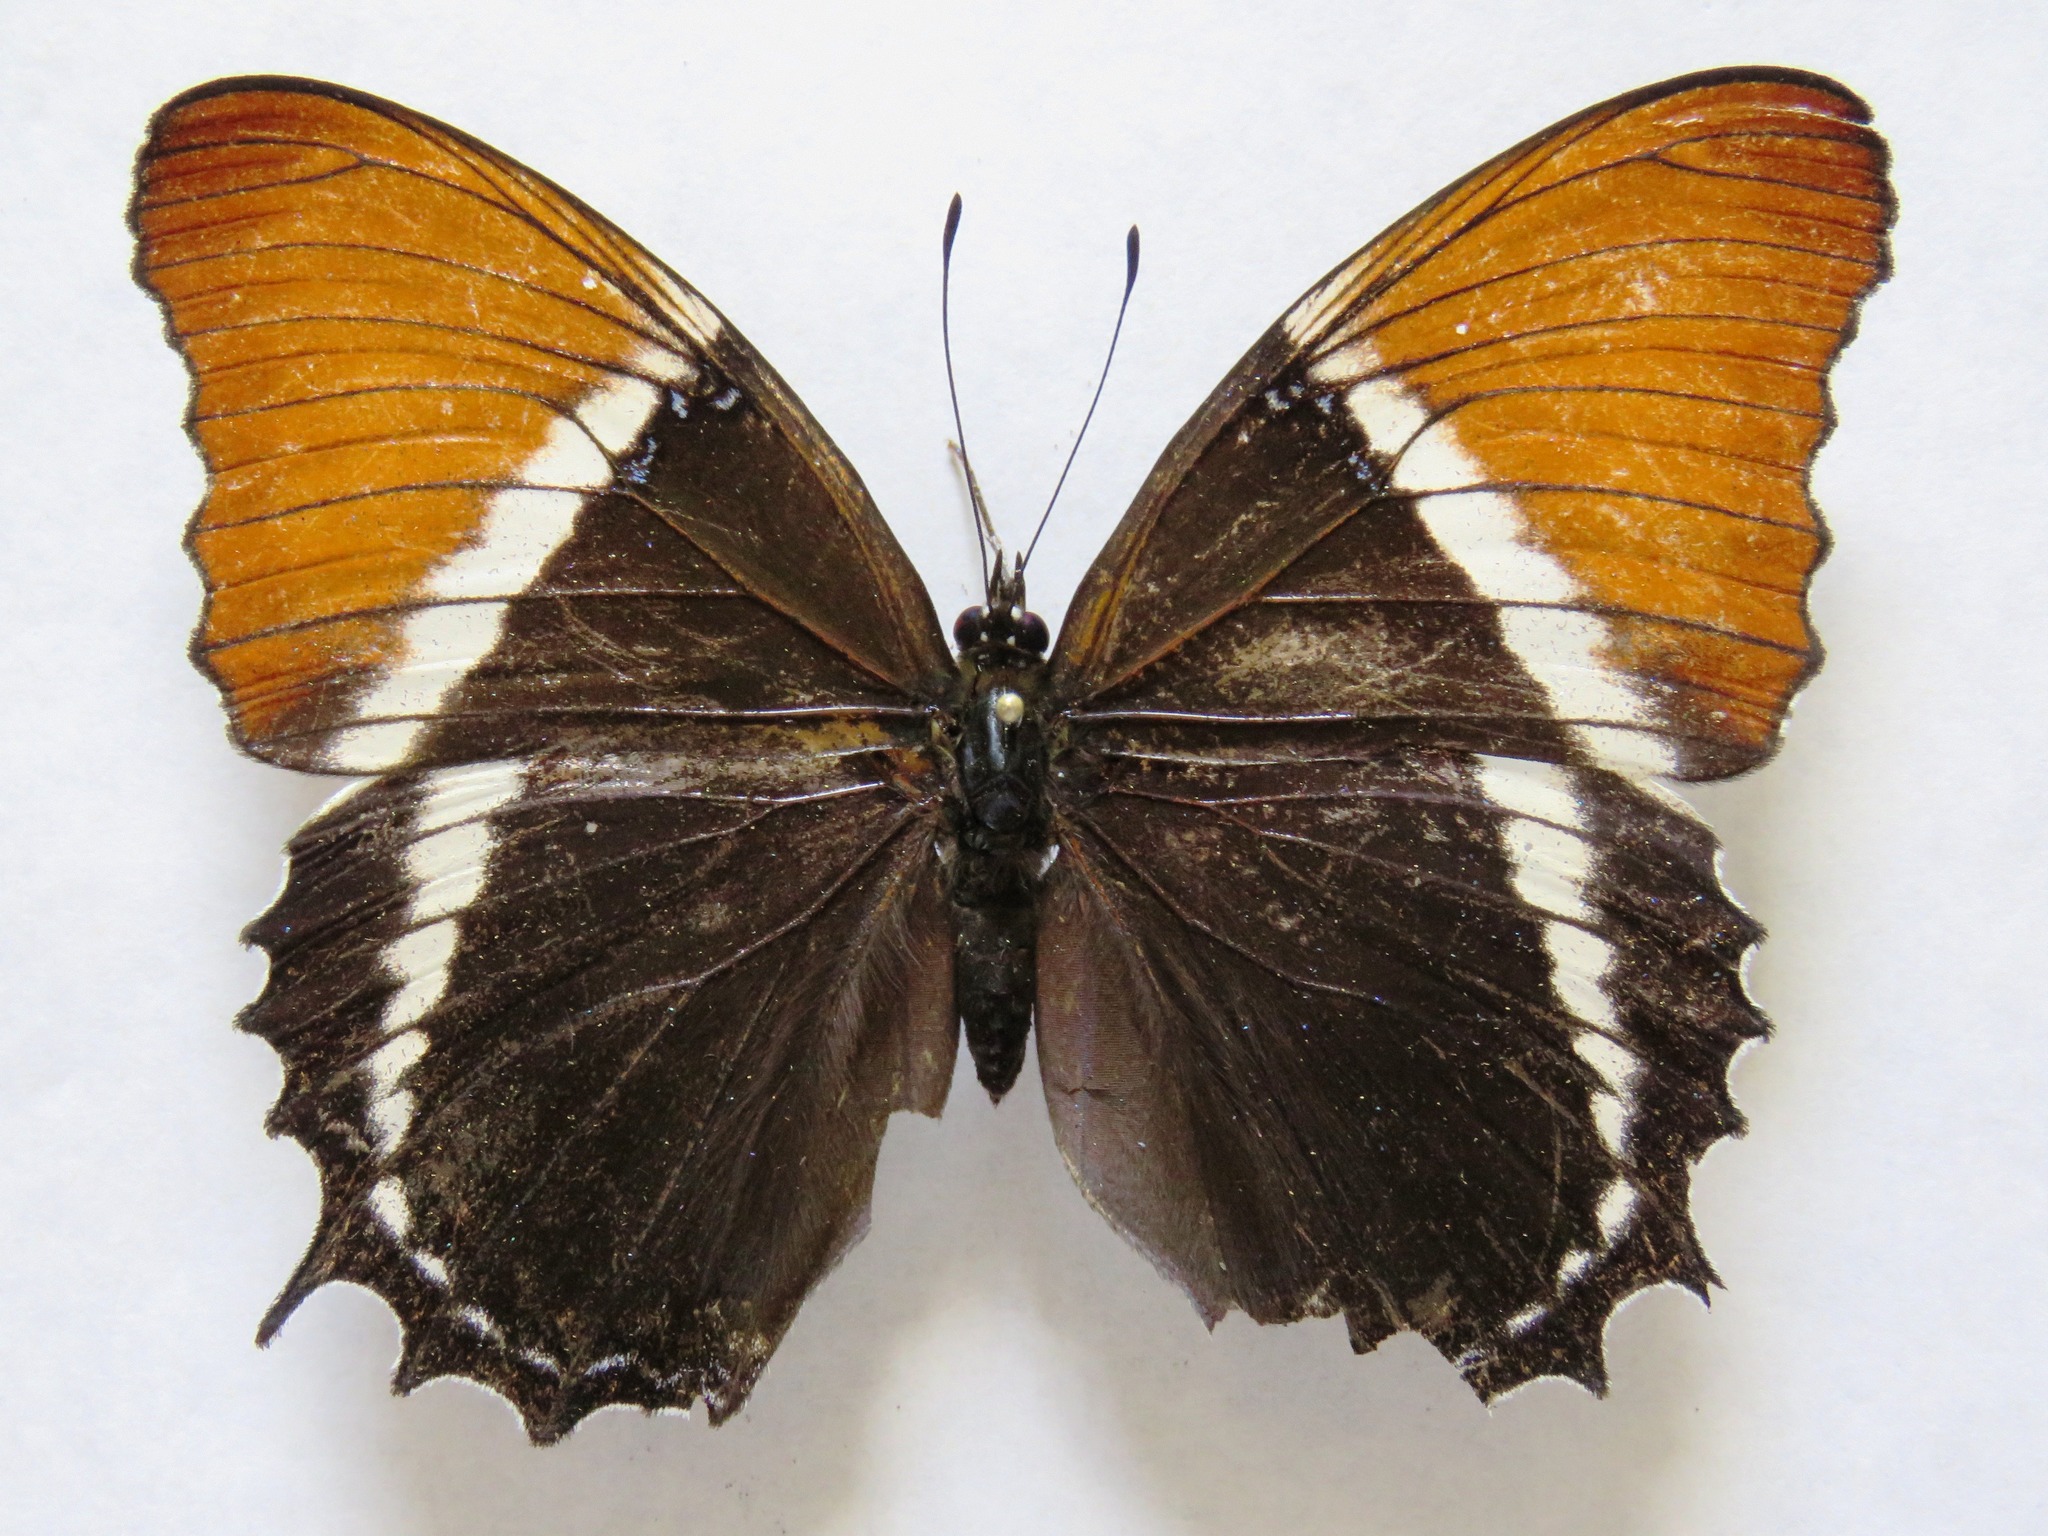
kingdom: Animalia
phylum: Arthropoda
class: Insecta
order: Lepidoptera
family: Nymphalidae
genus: Siproeta
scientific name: Siproeta epaphus
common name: Rusty-tipped page
